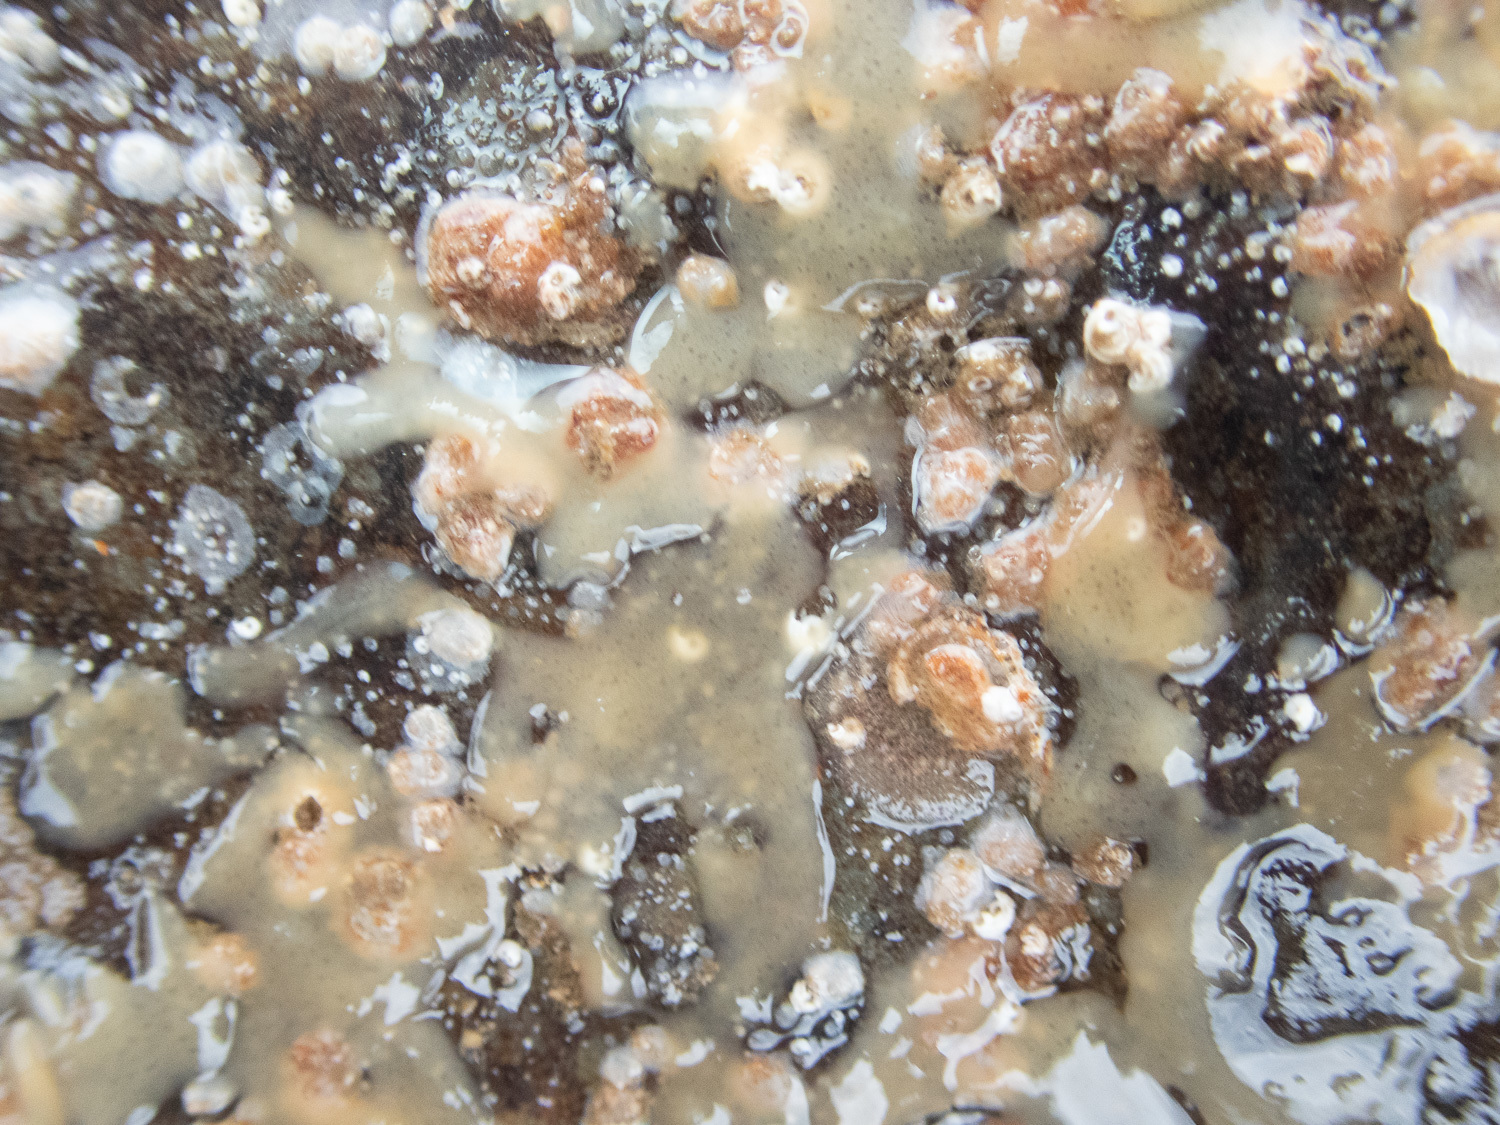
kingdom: Animalia
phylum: Porifera
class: Demospongiae
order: Chondrillida
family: Halisarcidae
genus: Halisarca
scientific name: Halisarca dujardinii
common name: Dujardin's slime sponge
